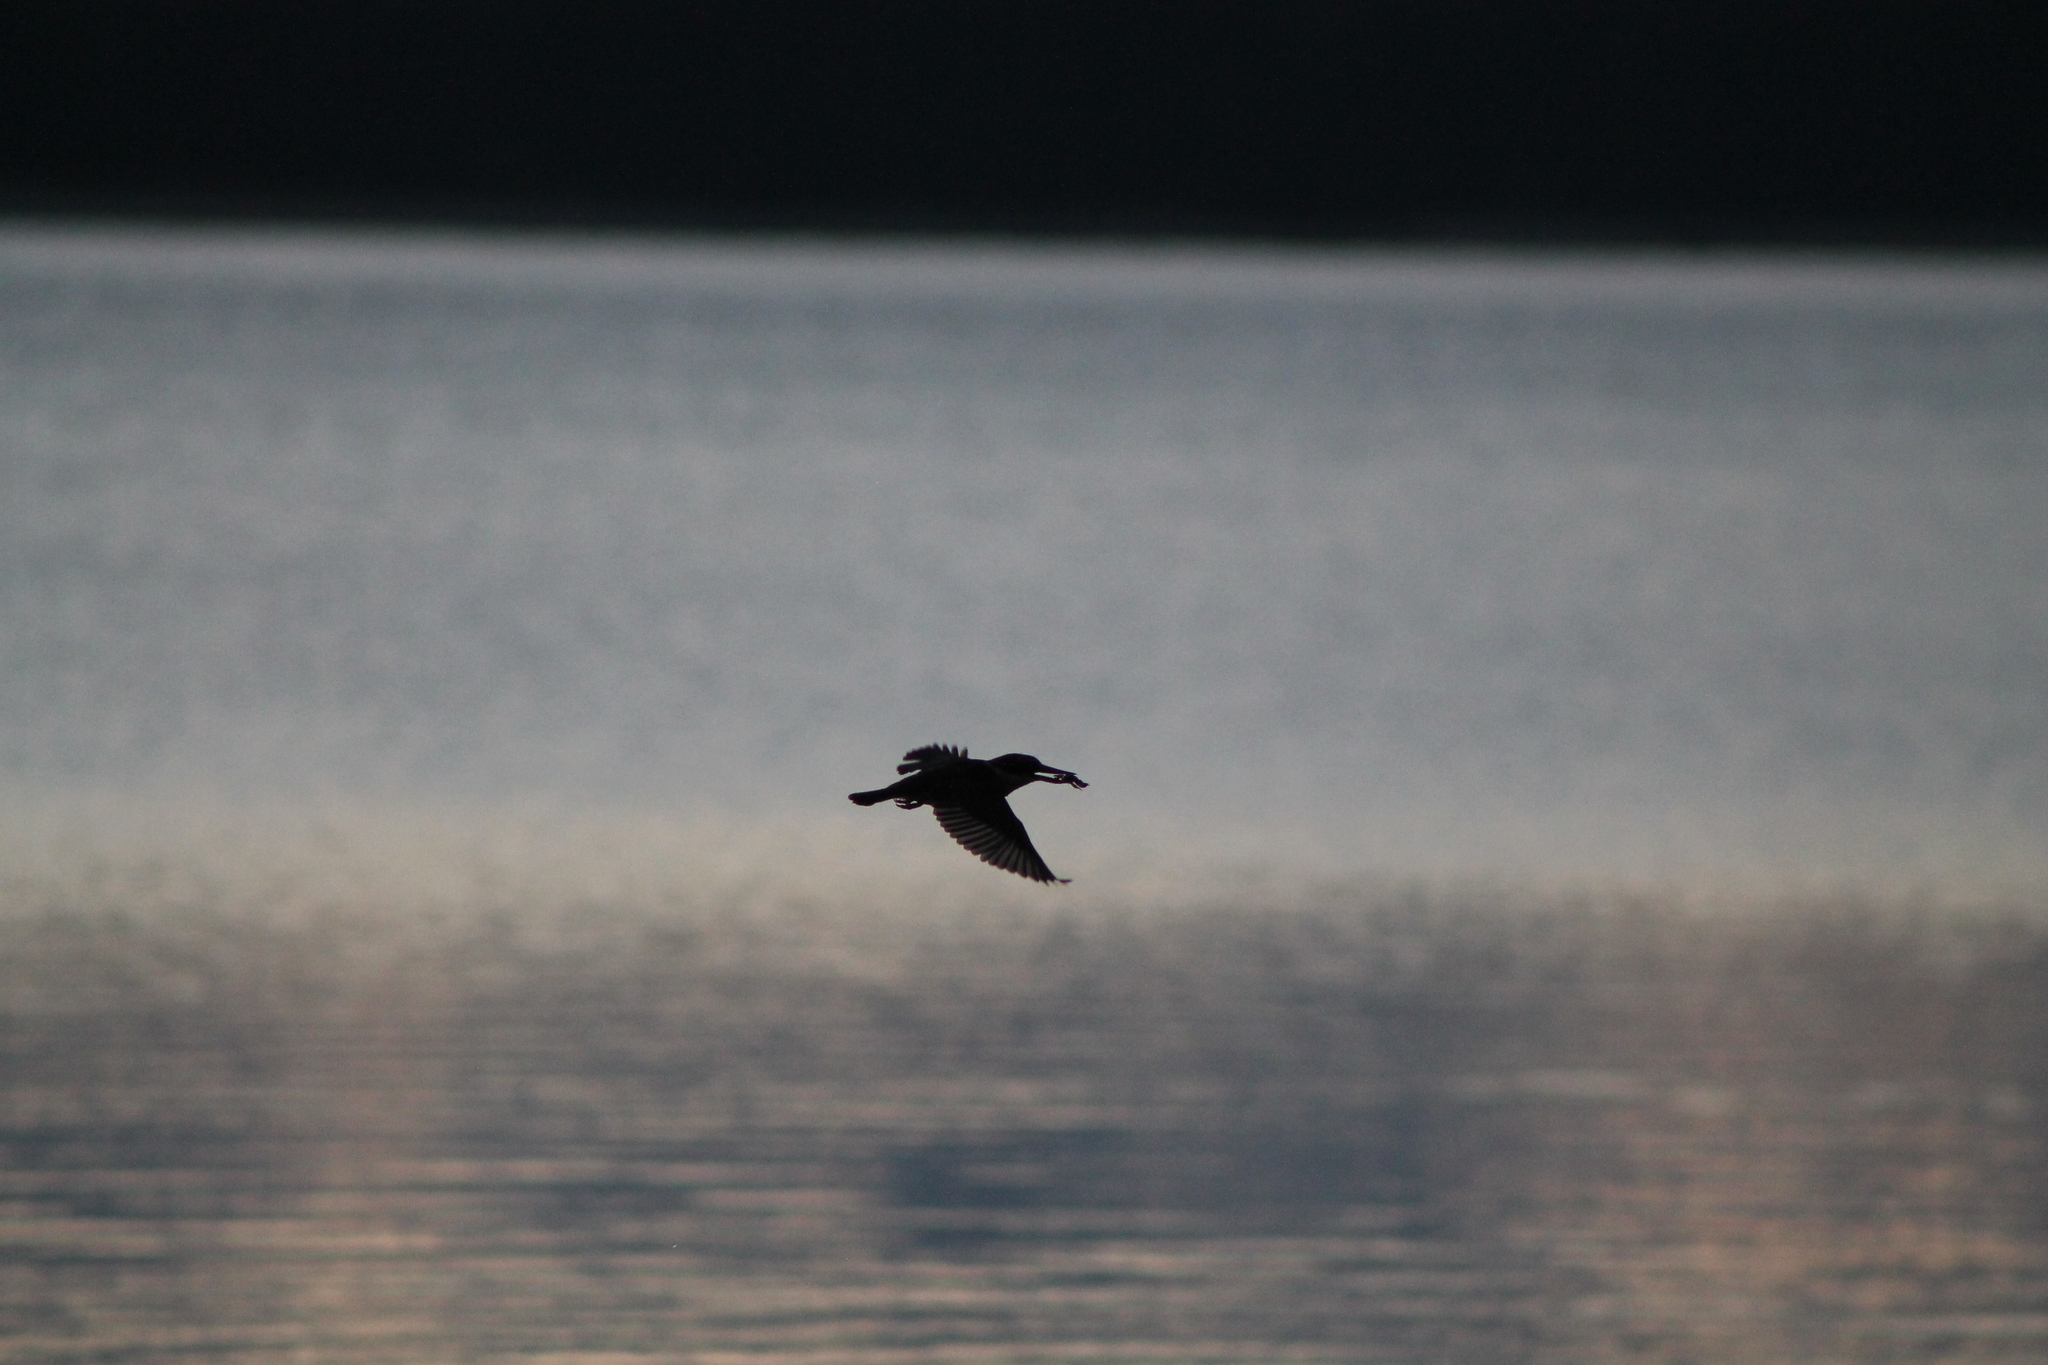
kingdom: Animalia
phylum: Chordata
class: Aves
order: Coraciiformes
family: Alcedinidae
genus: Todiramphus
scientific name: Todiramphus sanctus
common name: Sacred kingfisher
